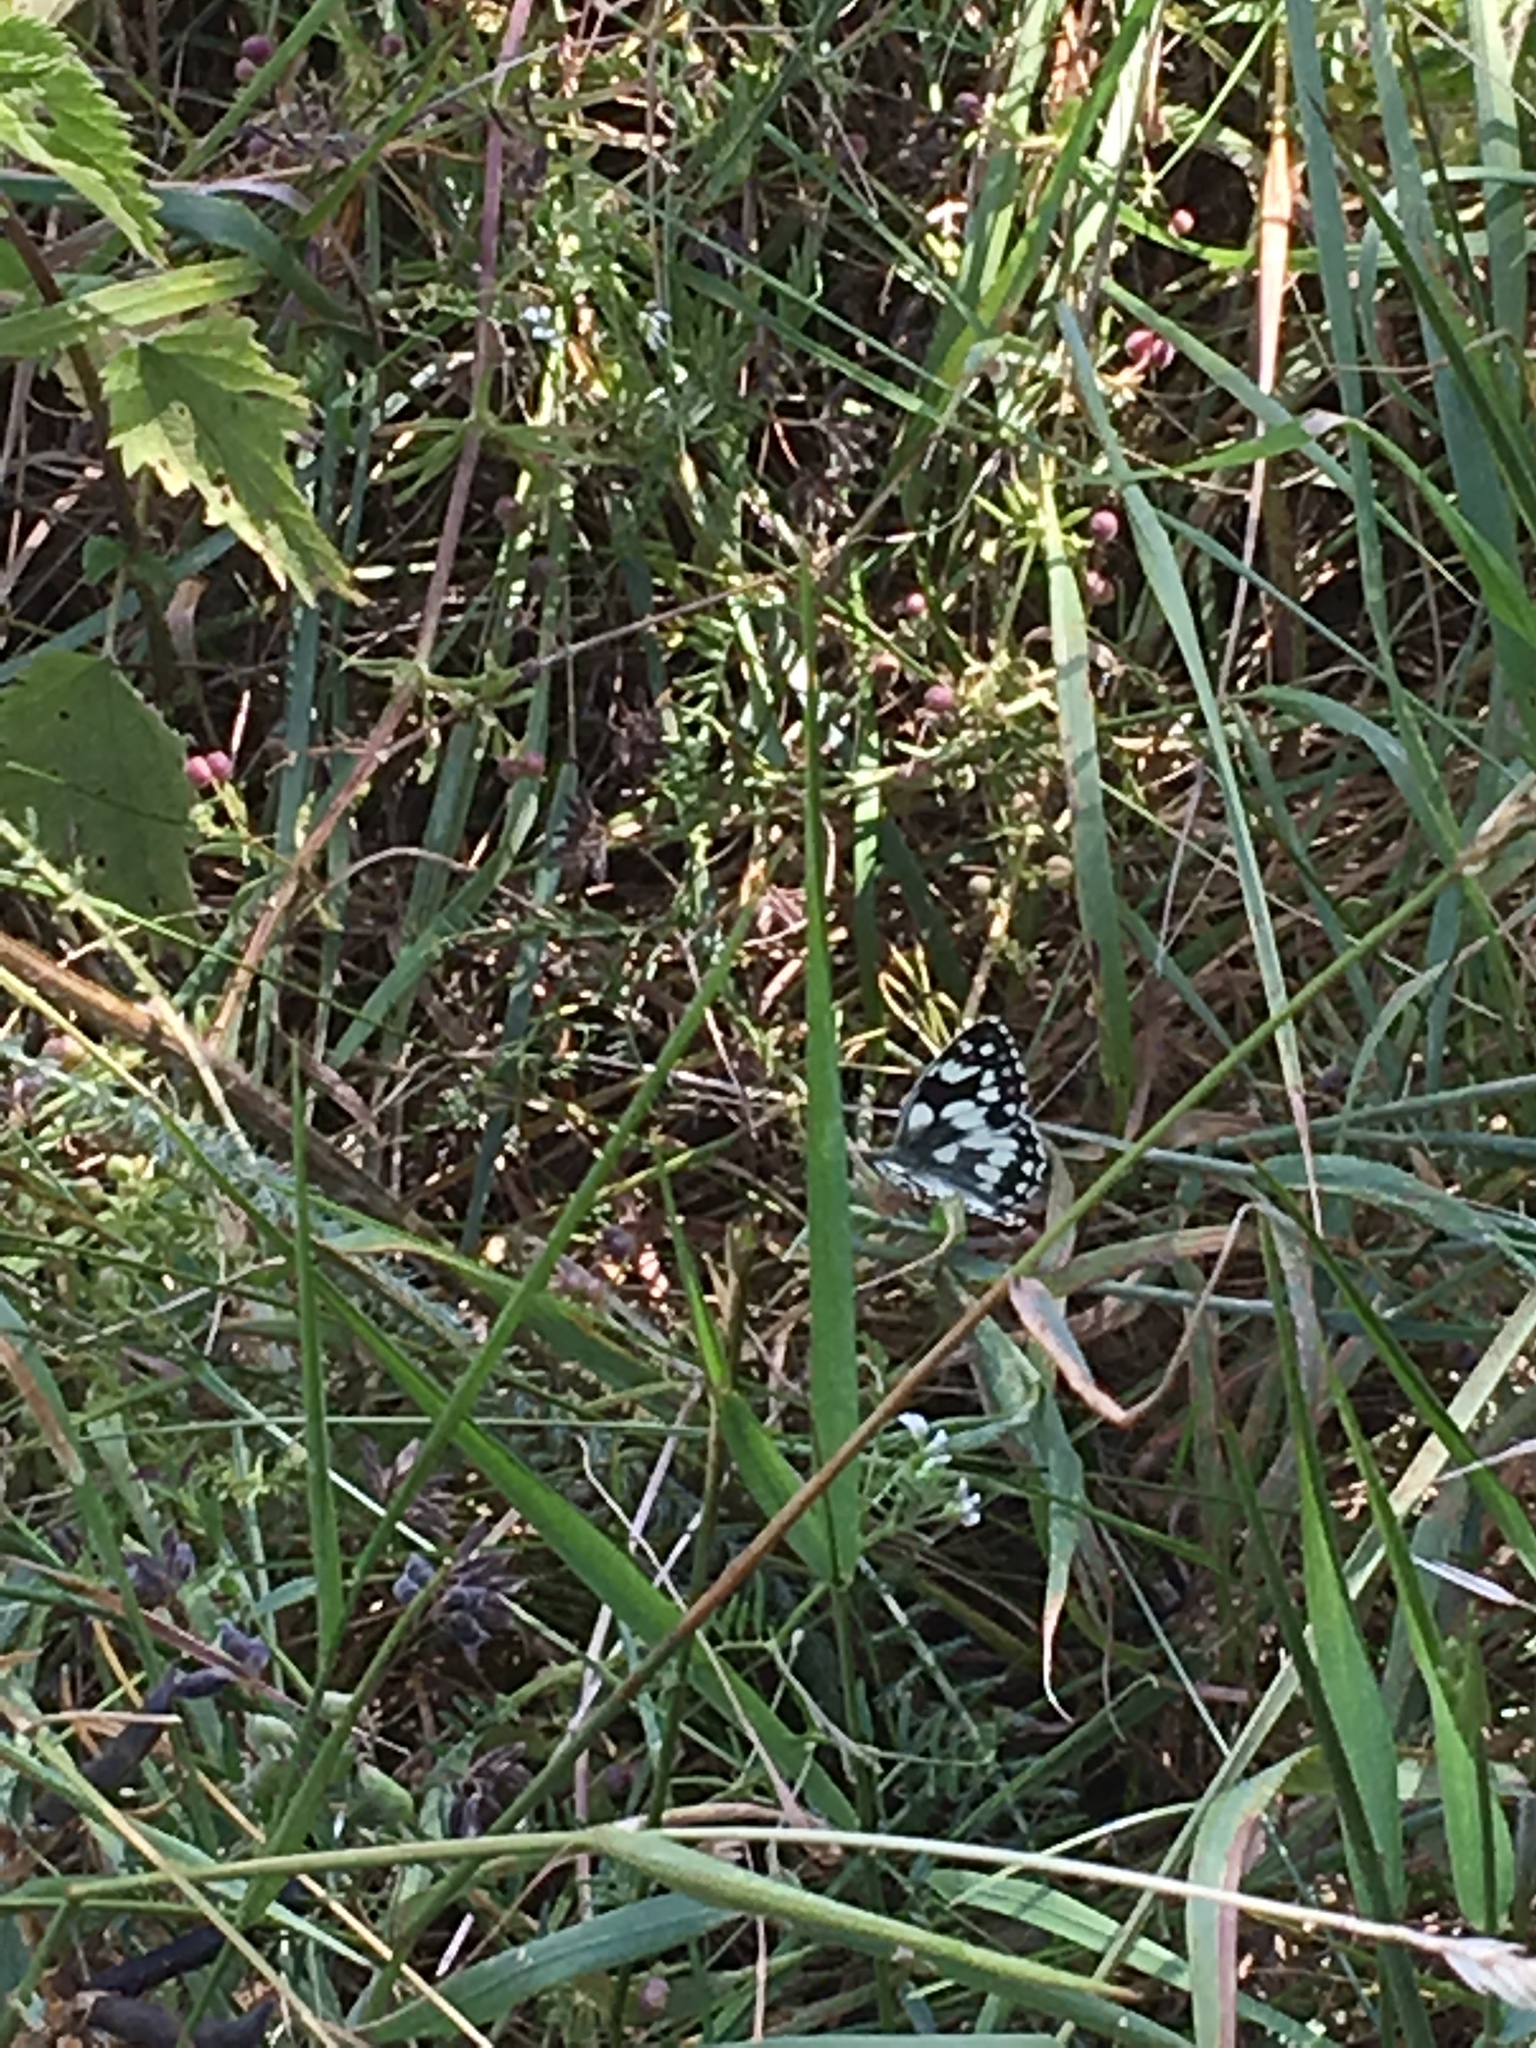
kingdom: Animalia
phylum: Arthropoda
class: Insecta
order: Lepidoptera
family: Nymphalidae
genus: Melanargia
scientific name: Melanargia galathea
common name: Marbled white
